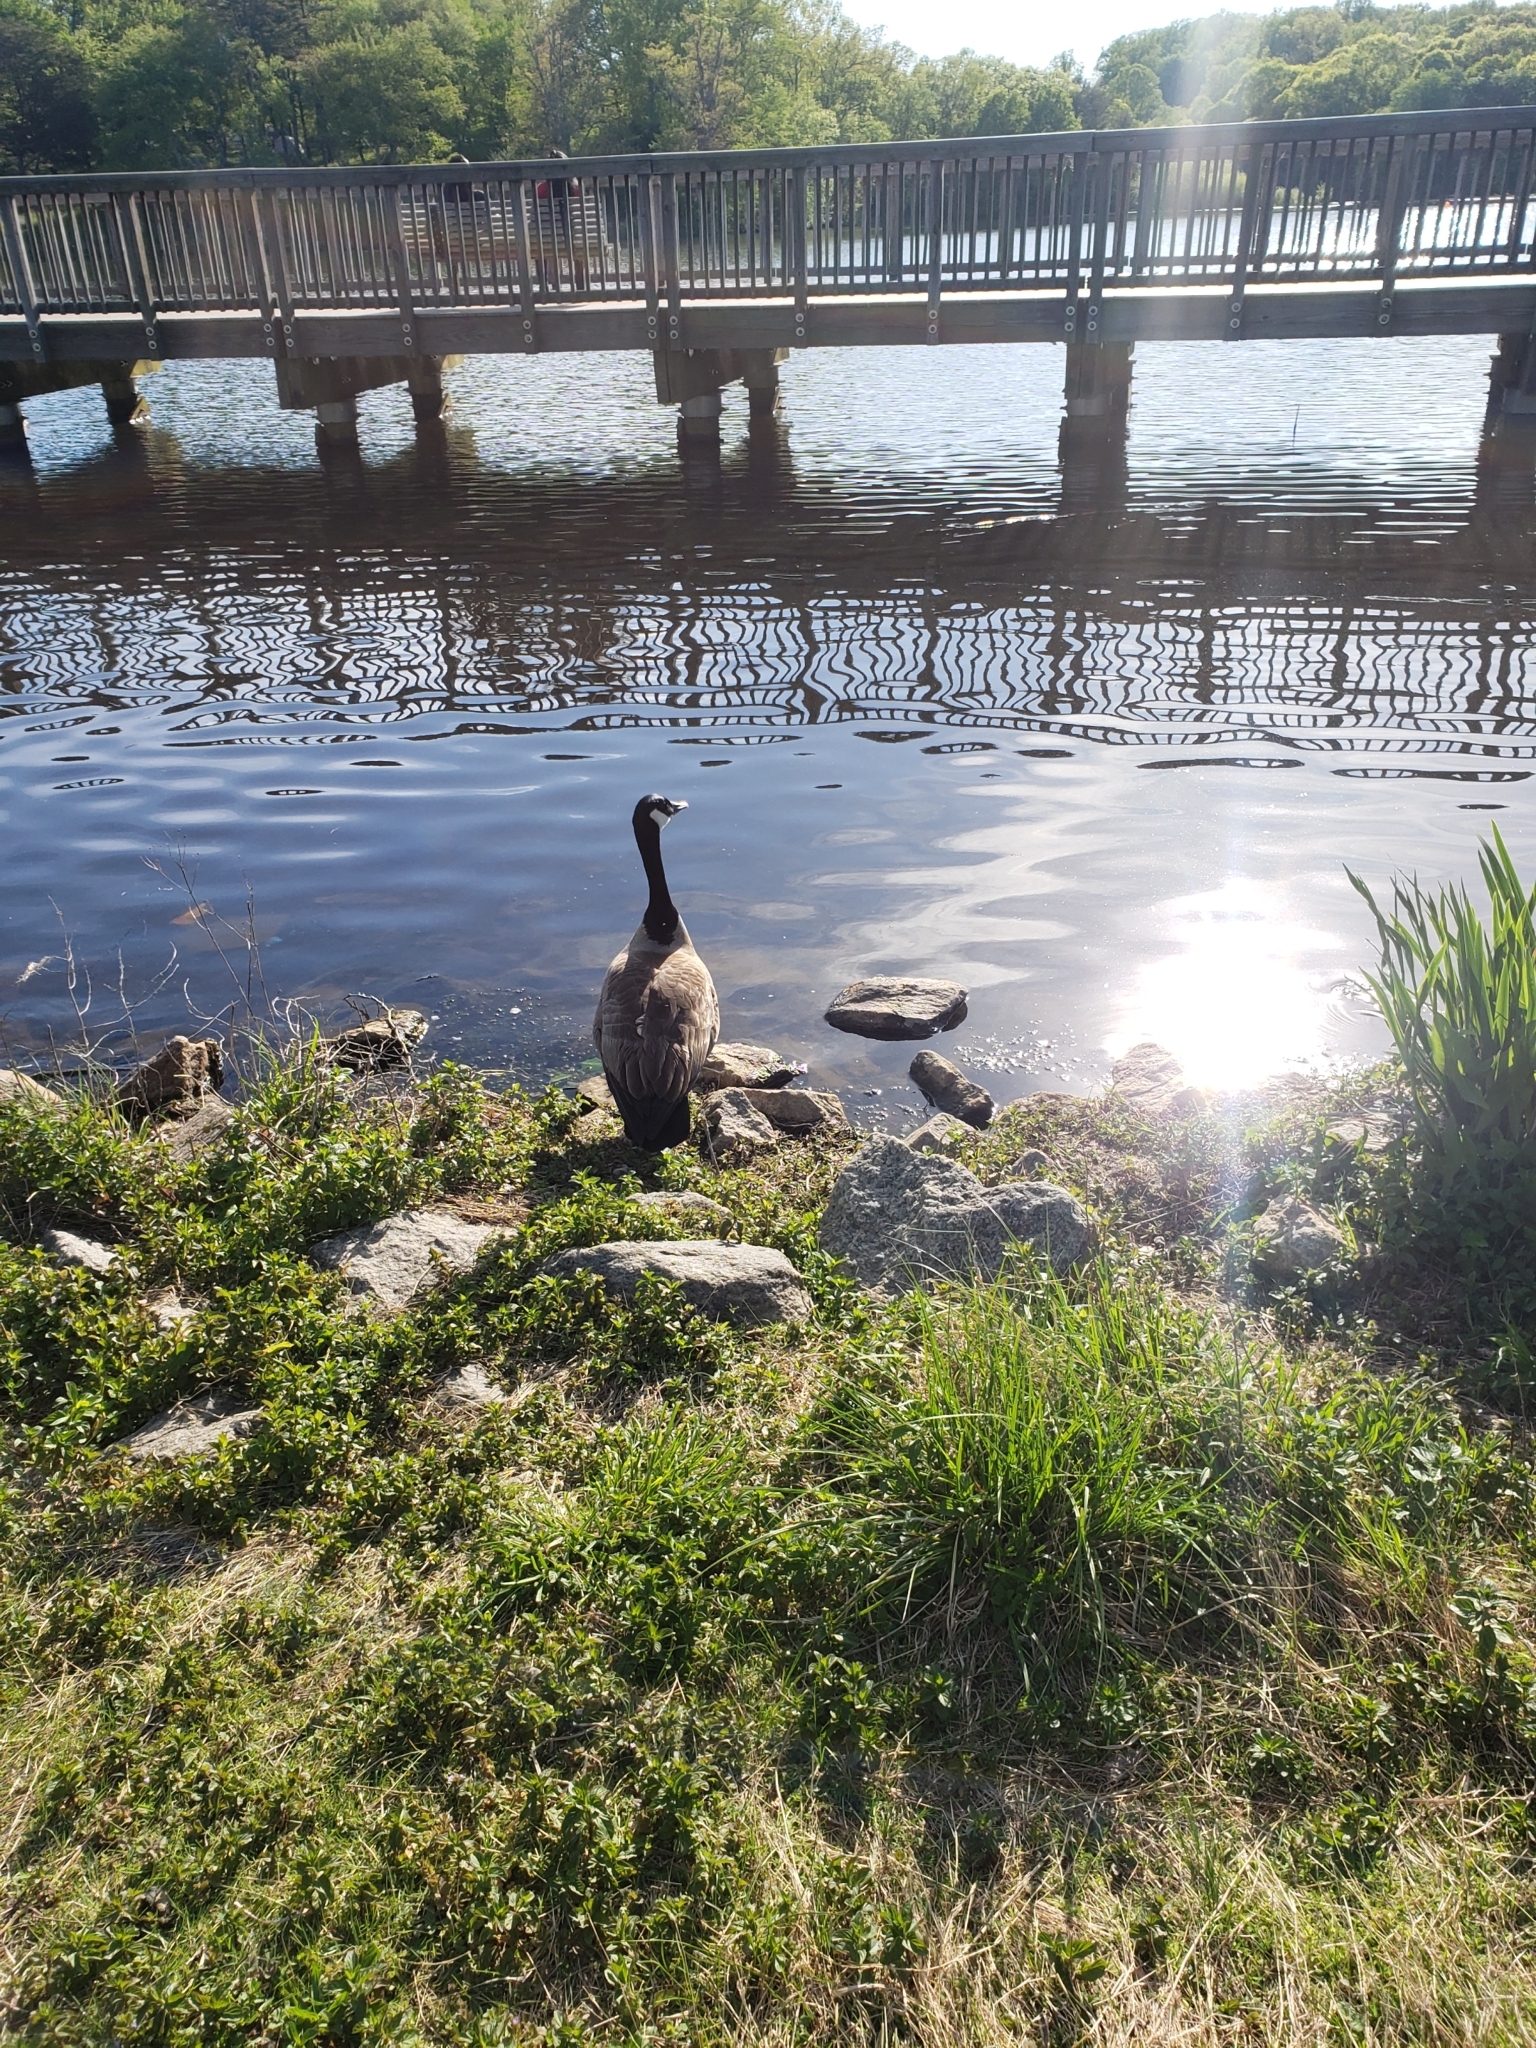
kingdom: Animalia
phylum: Chordata
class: Aves
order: Anseriformes
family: Anatidae
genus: Branta
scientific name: Branta canadensis
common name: Canada goose
